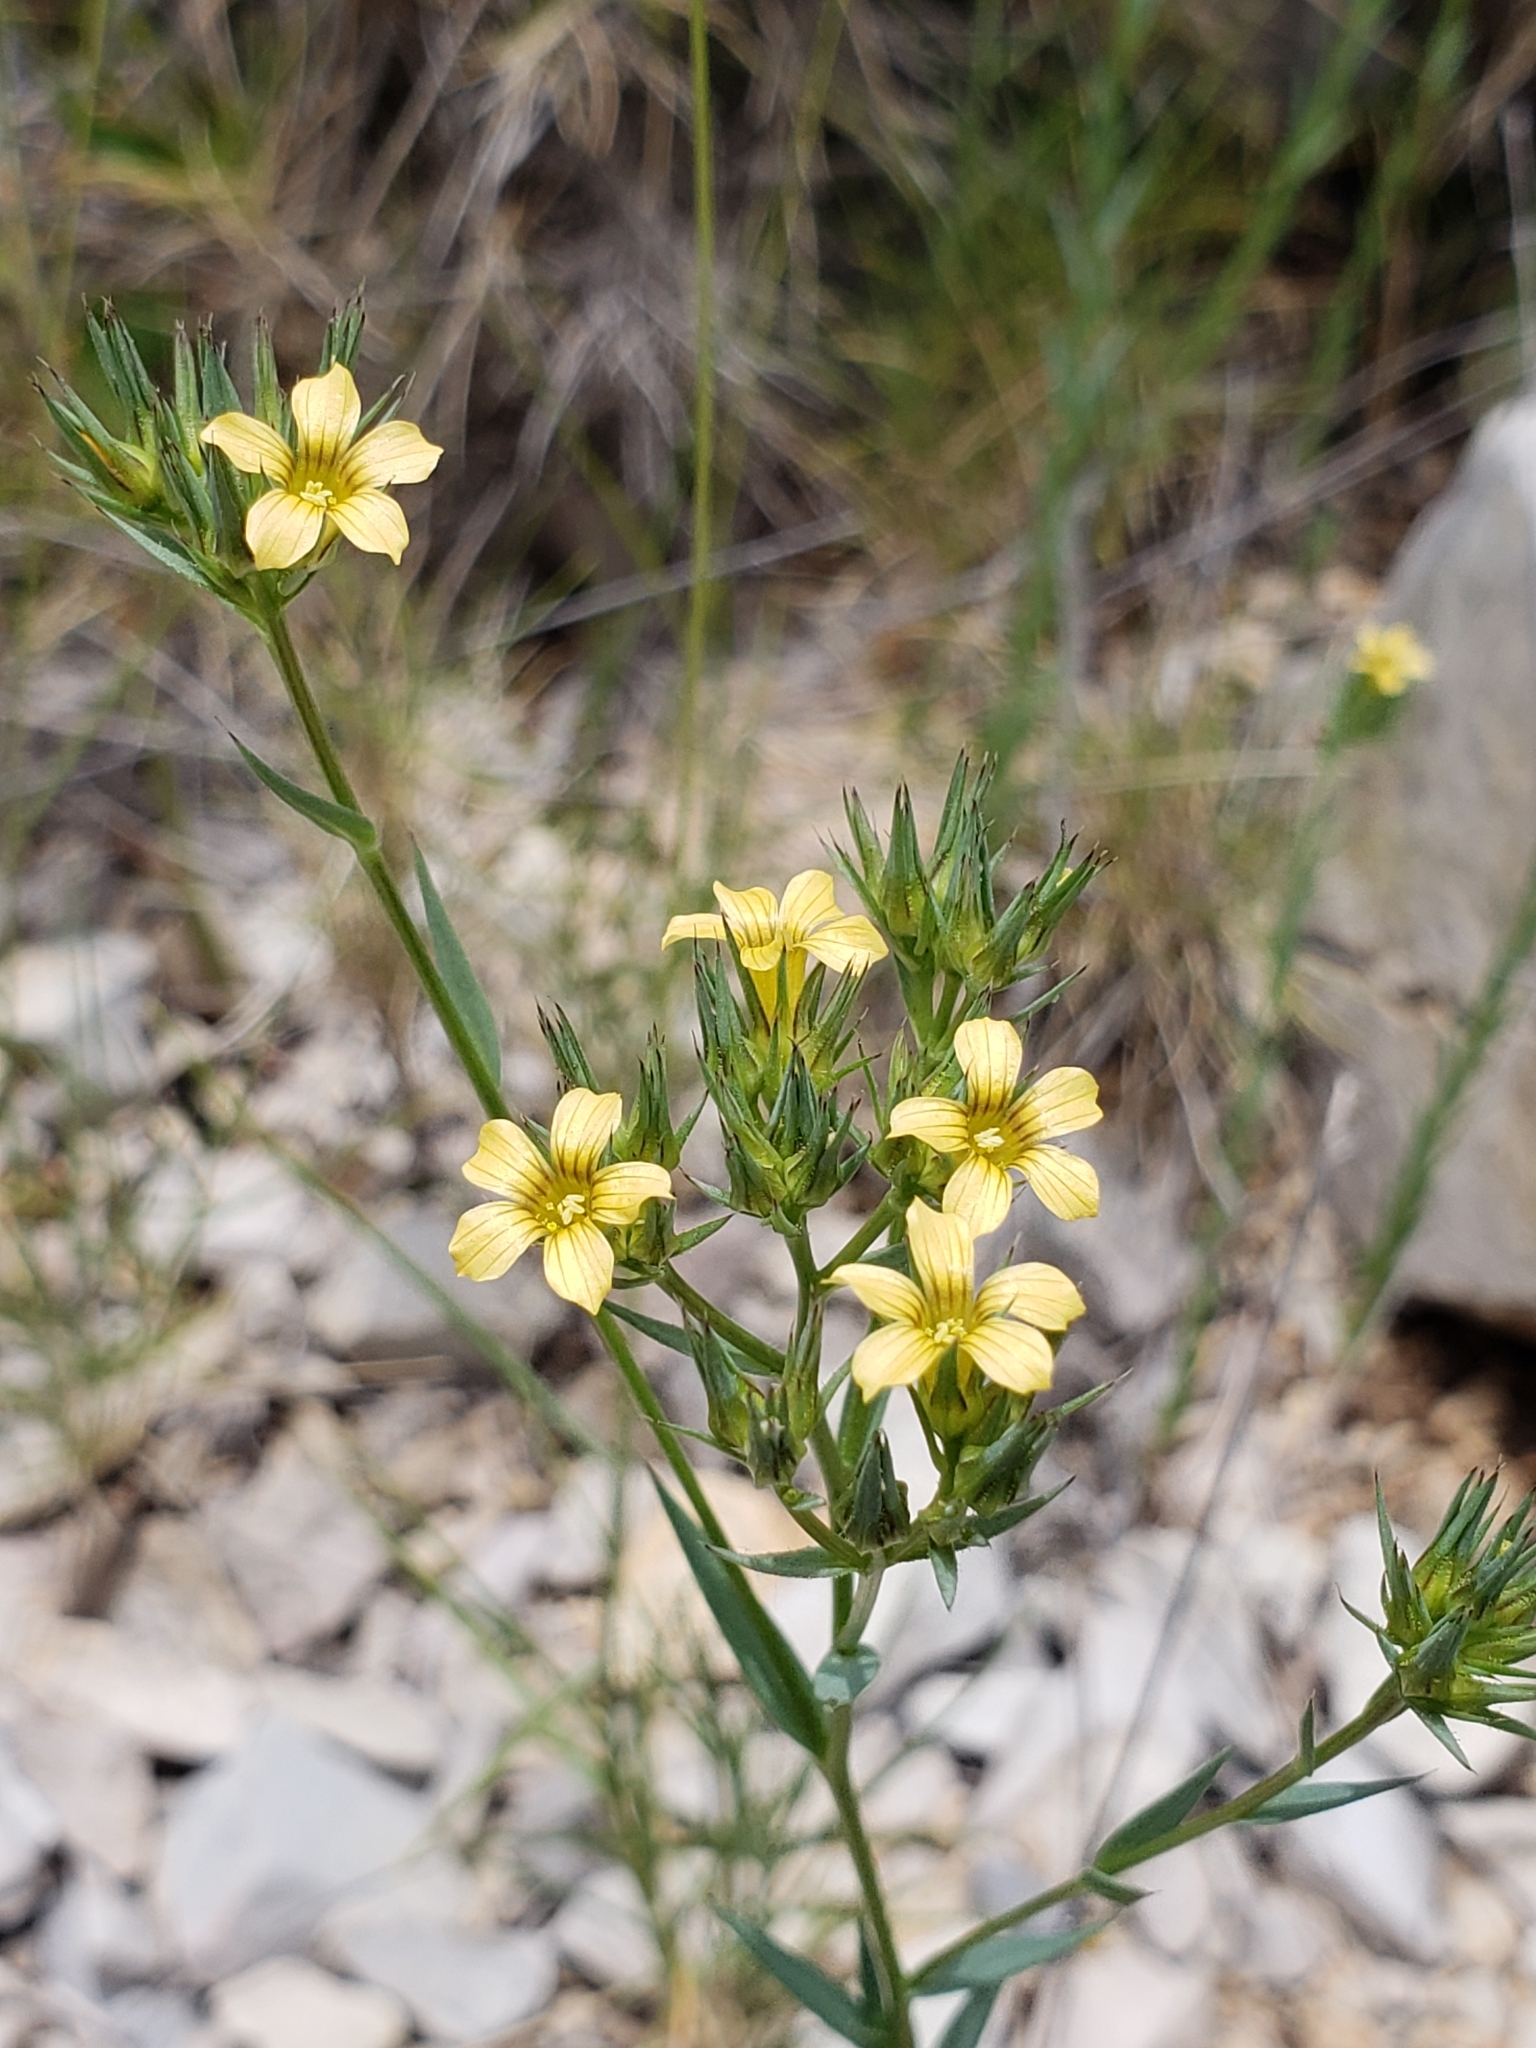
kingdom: Plantae
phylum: Tracheophyta
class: Magnoliopsida
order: Malpighiales
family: Linaceae
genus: Linum
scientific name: Linum strictum
